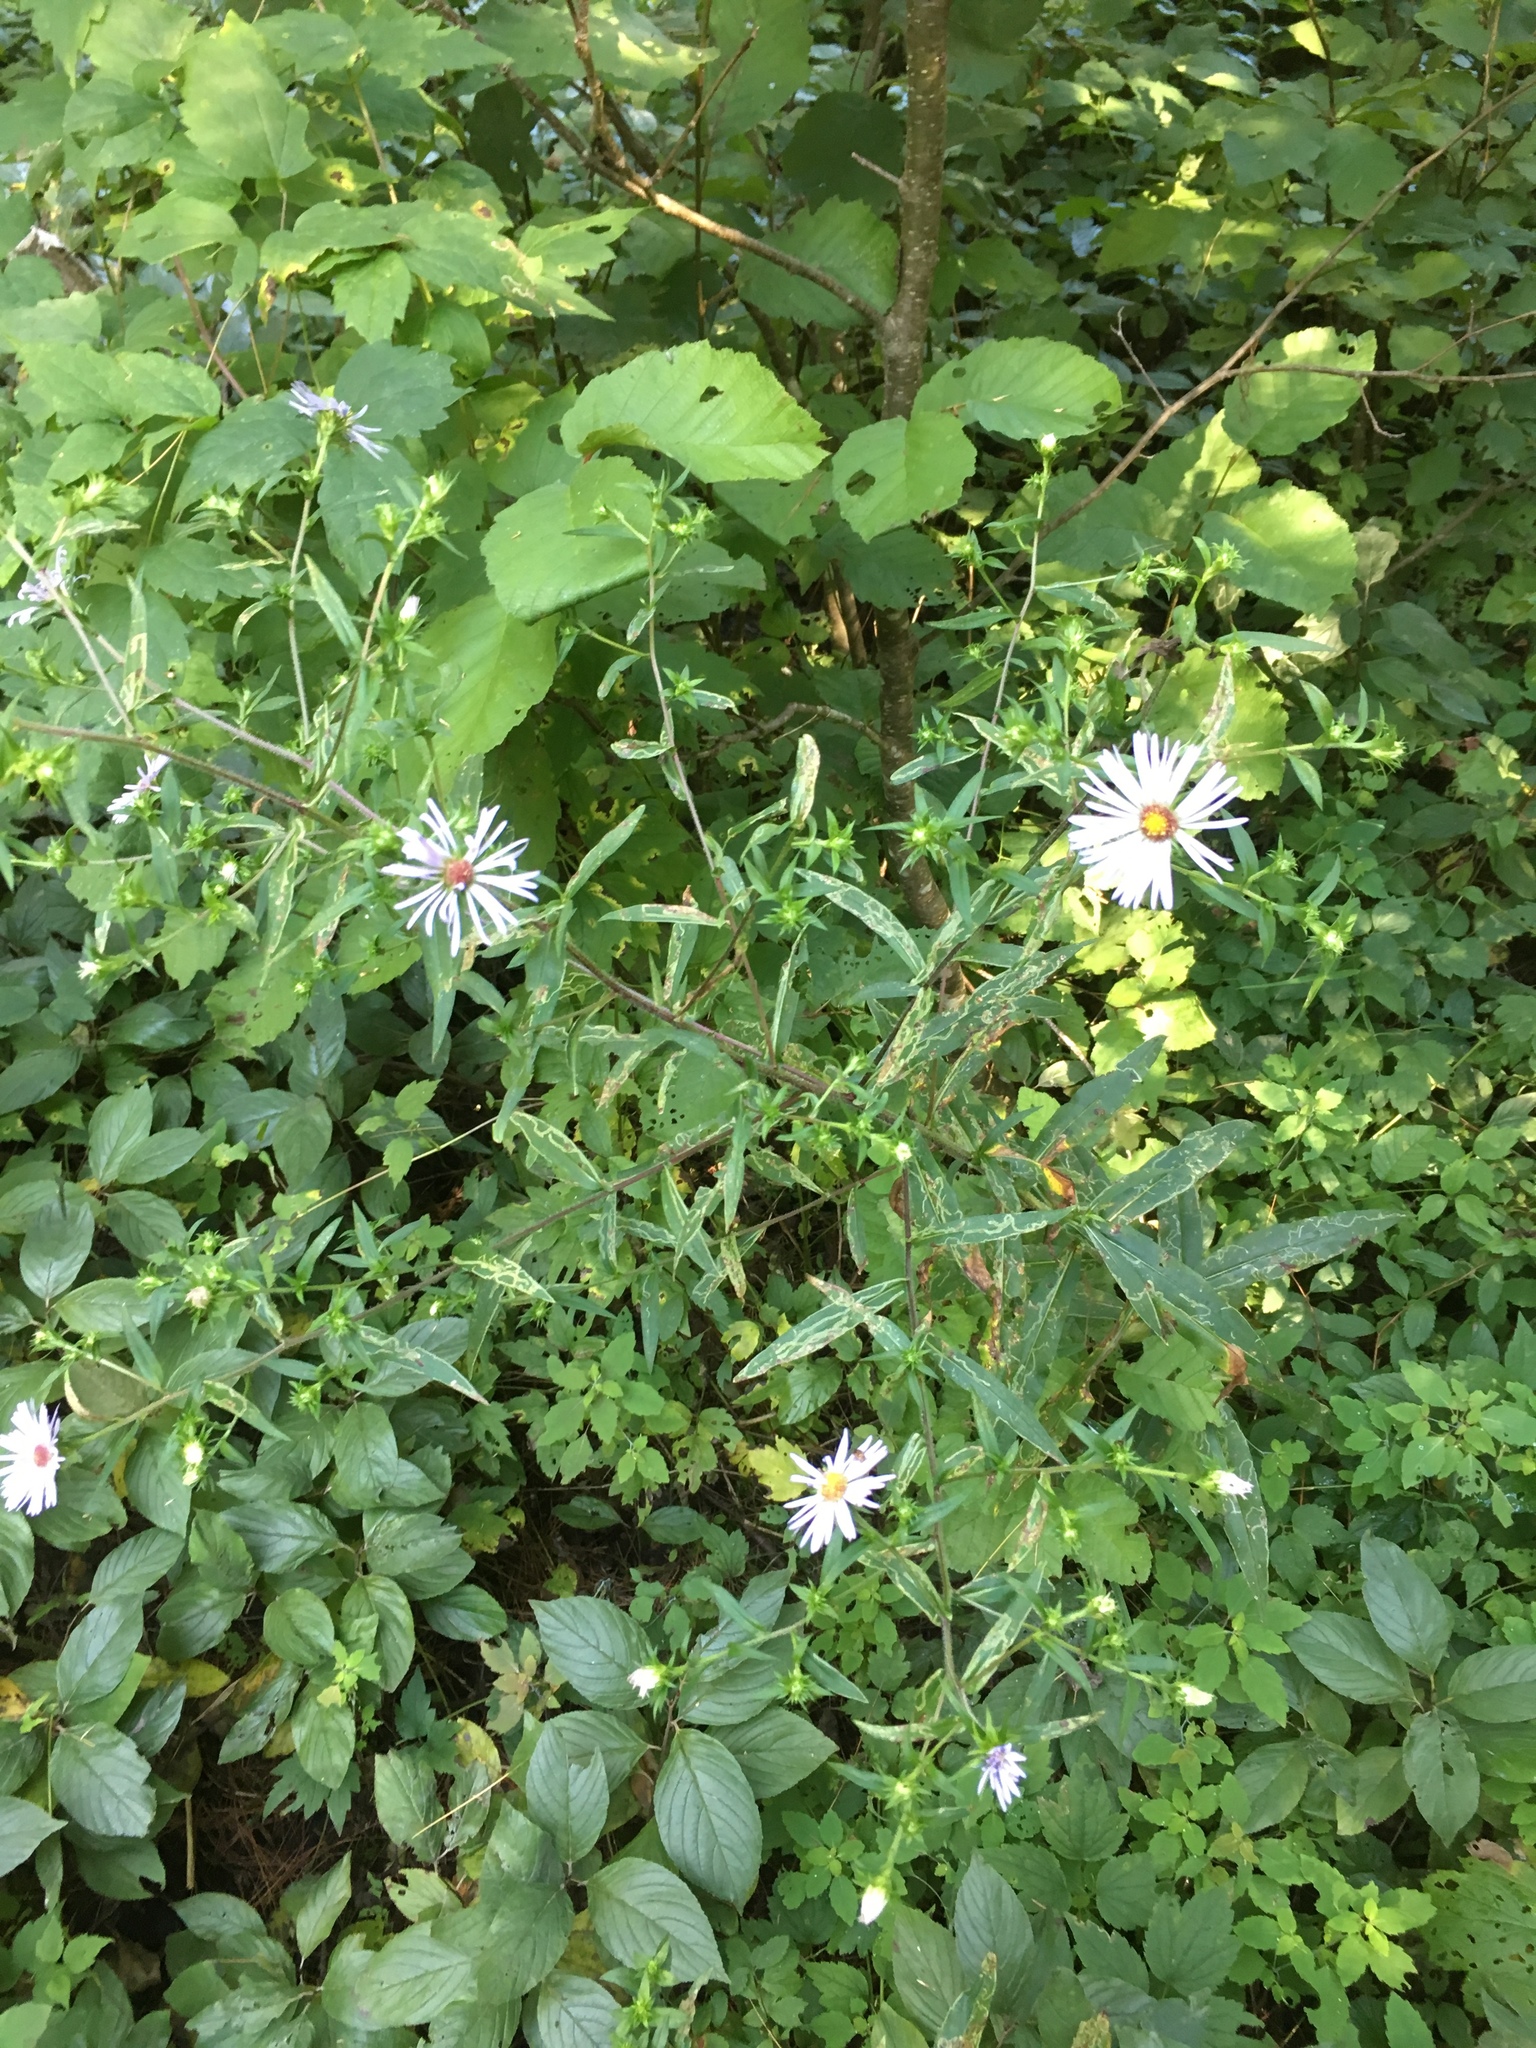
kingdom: Plantae
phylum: Tracheophyta
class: Magnoliopsida
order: Asterales
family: Asteraceae
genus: Symphyotrichum
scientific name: Symphyotrichum puniceum
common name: Bog aster
